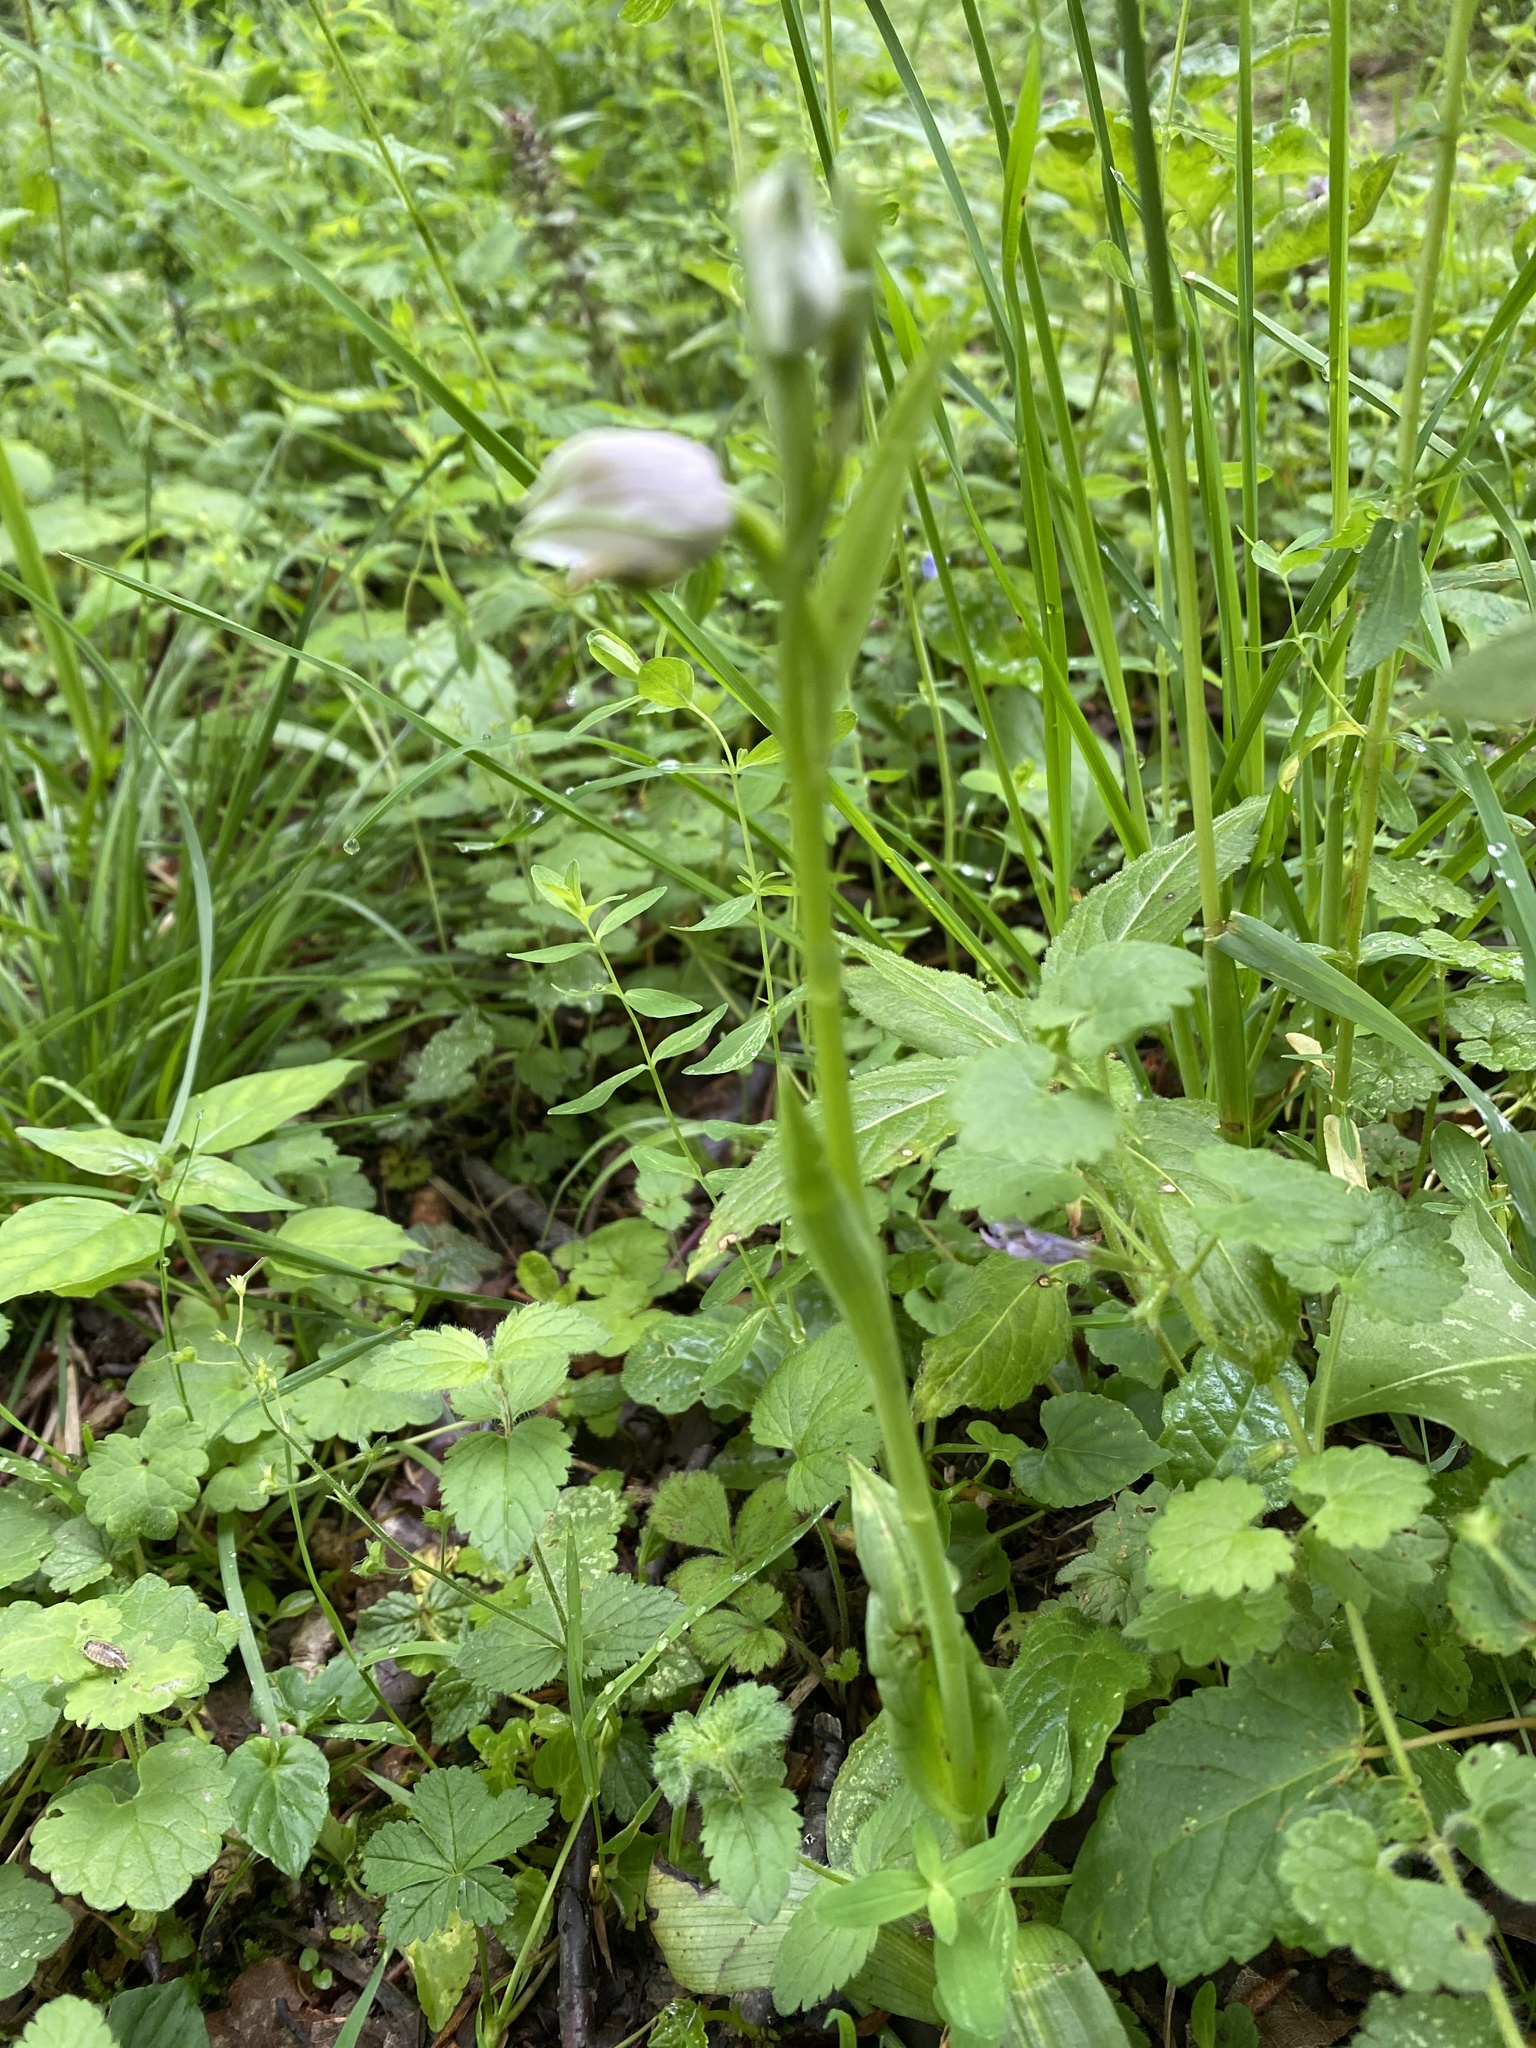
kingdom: Plantae
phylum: Tracheophyta
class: Liliopsida
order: Asparagales
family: Orchidaceae
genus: Cephalanthera
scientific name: Cephalanthera damasonium
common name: White helleborine
